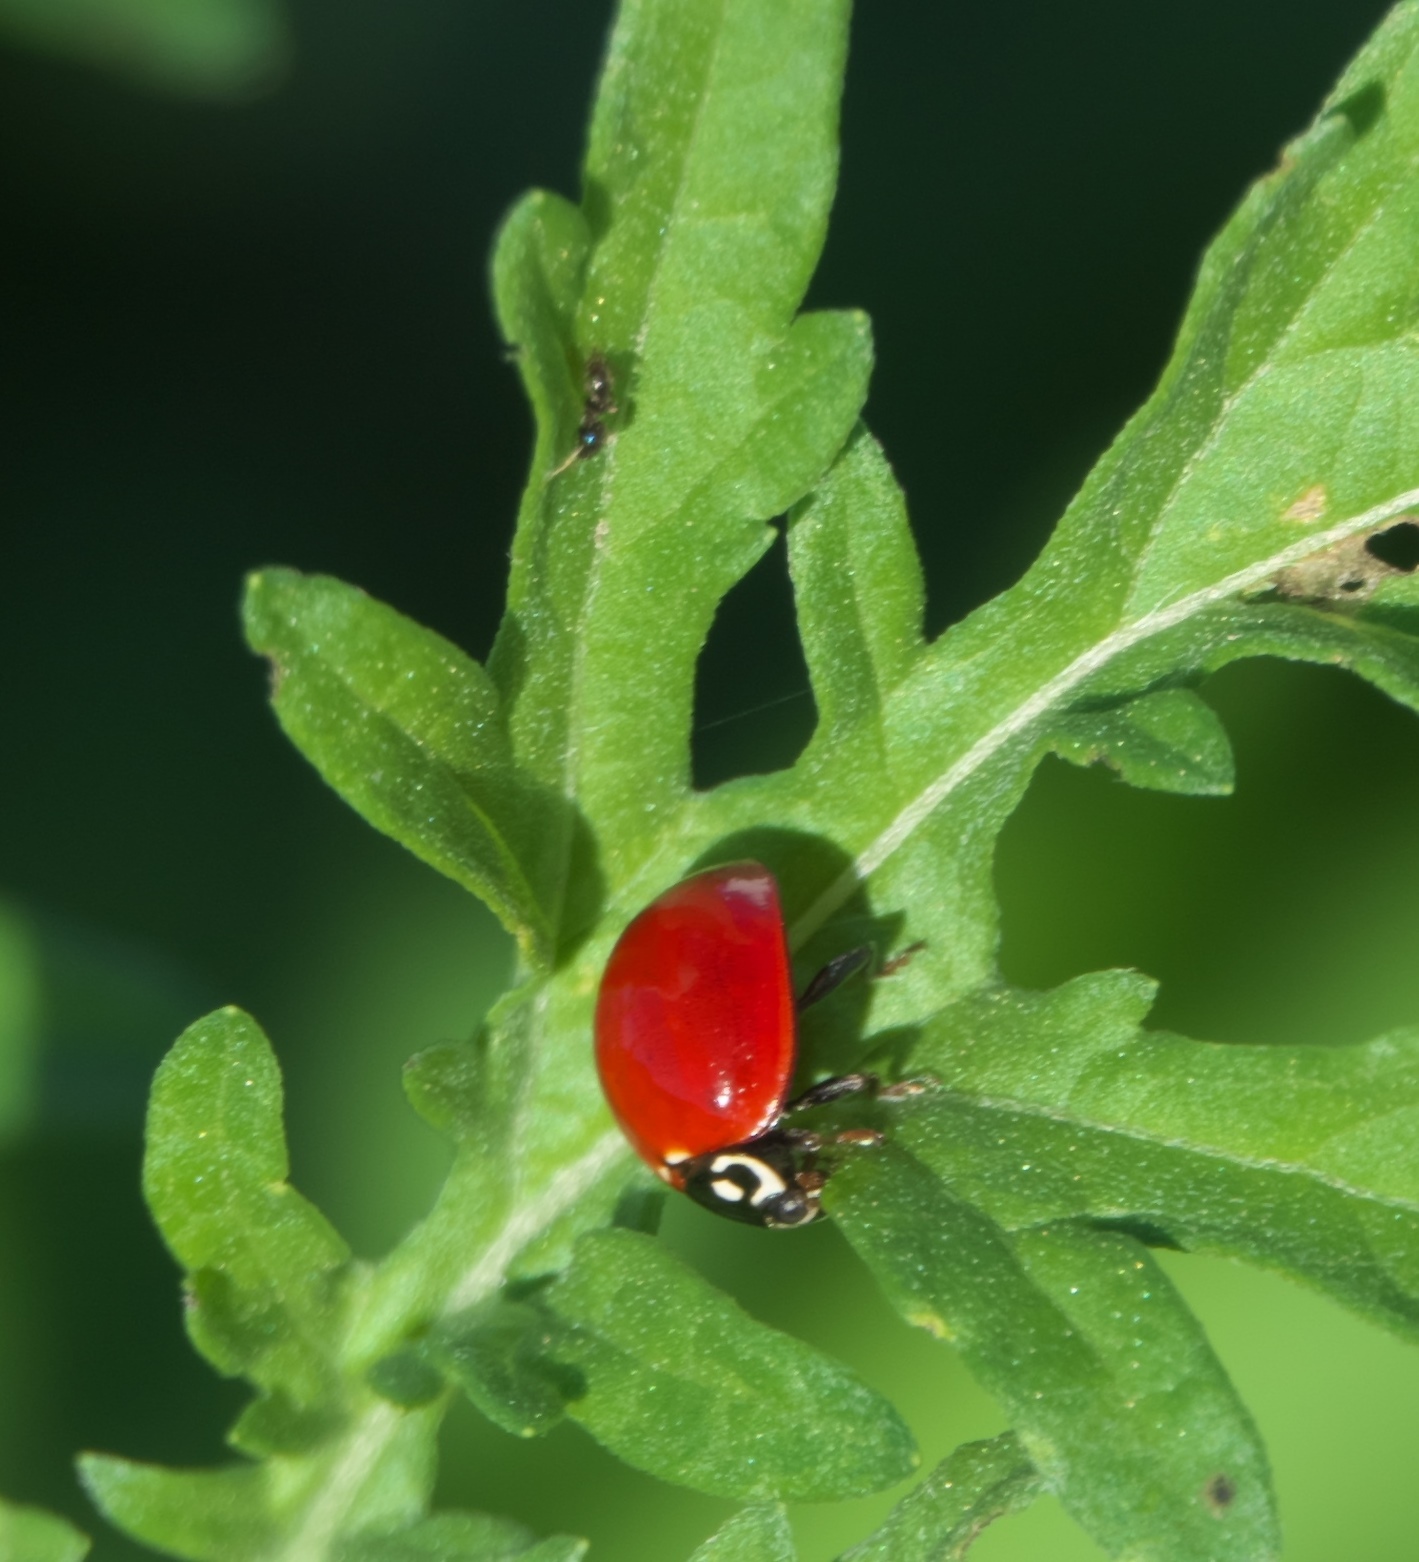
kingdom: Animalia
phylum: Arthropoda
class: Insecta
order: Coleoptera
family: Coccinellidae
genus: Cycloneda
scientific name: Cycloneda sanguinea
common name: Ladybird beetle
